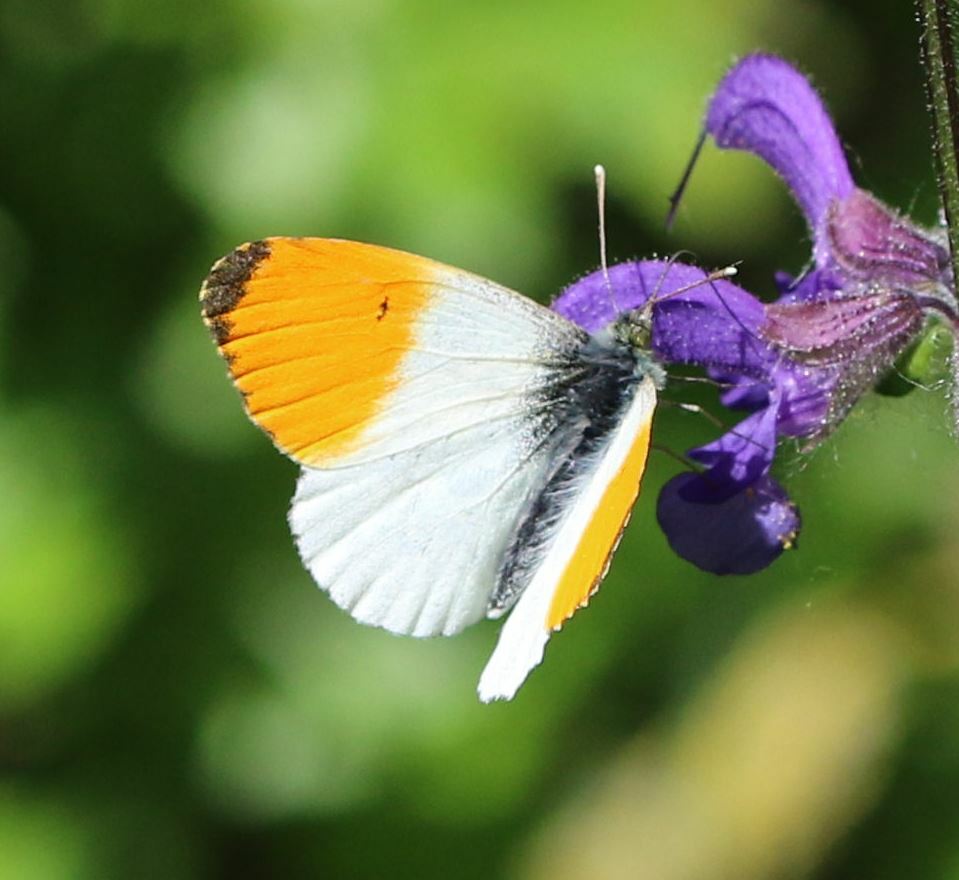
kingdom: Animalia
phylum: Arthropoda
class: Insecta
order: Lepidoptera
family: Pieridae
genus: Anthocharis
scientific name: Anthocharis cardamines
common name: Orange-tip
